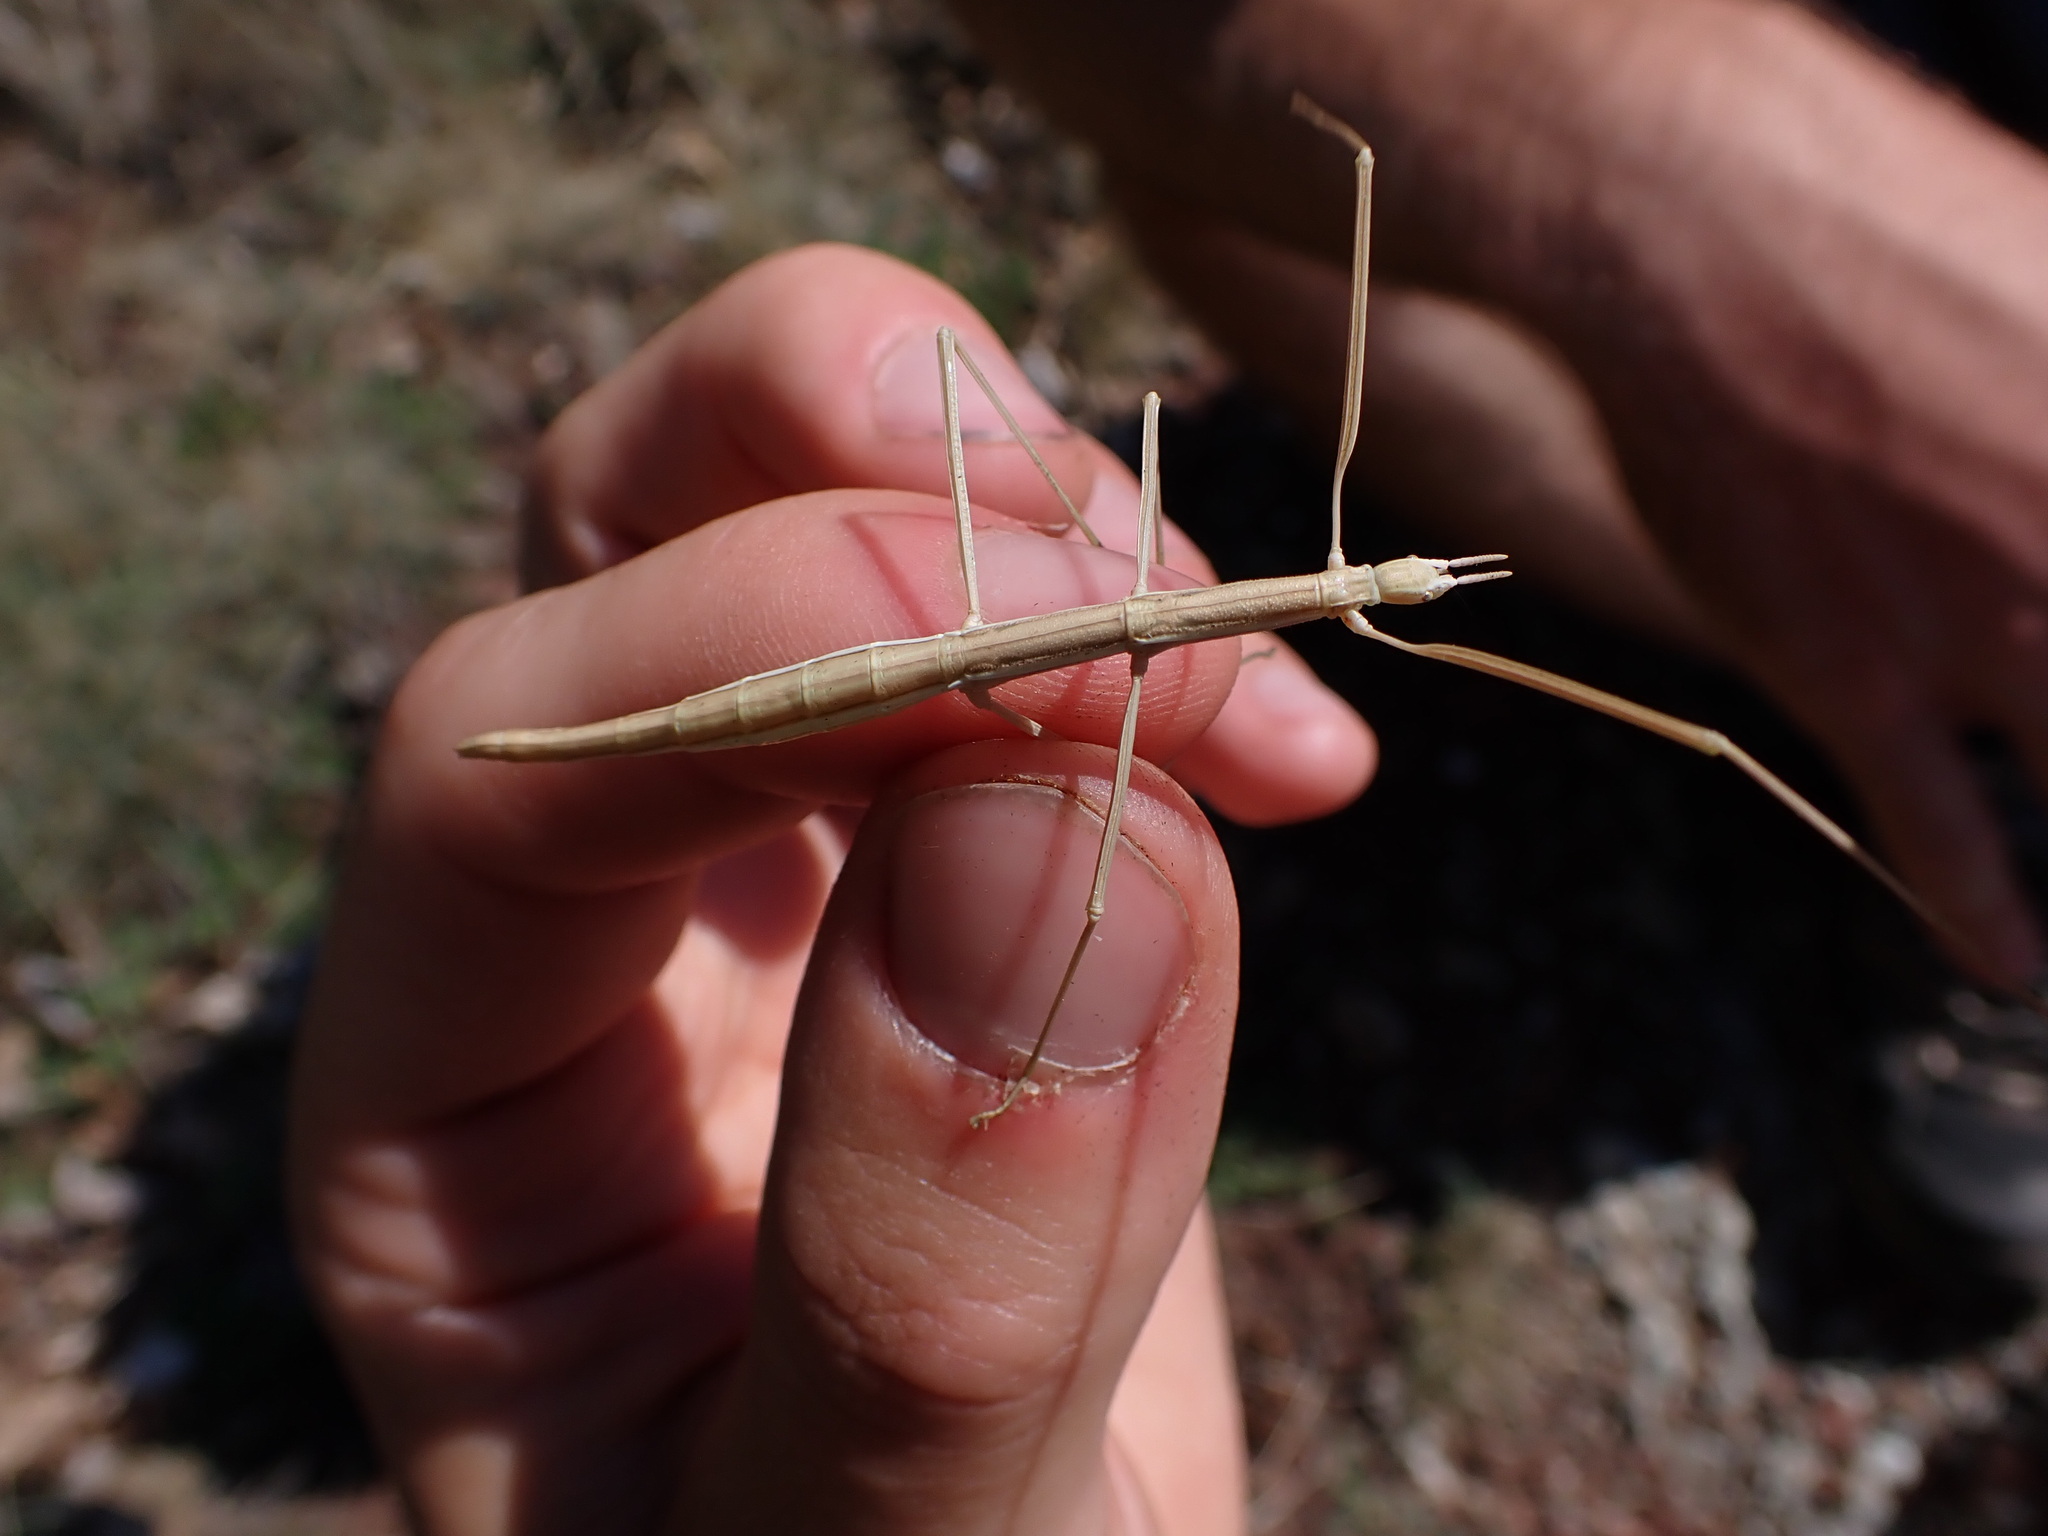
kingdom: Animalia
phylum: Arthropoda
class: Insecta
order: Phasmida
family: Bacillidae
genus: Clonopsis
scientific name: Clonopsis gallica
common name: French stick insect
